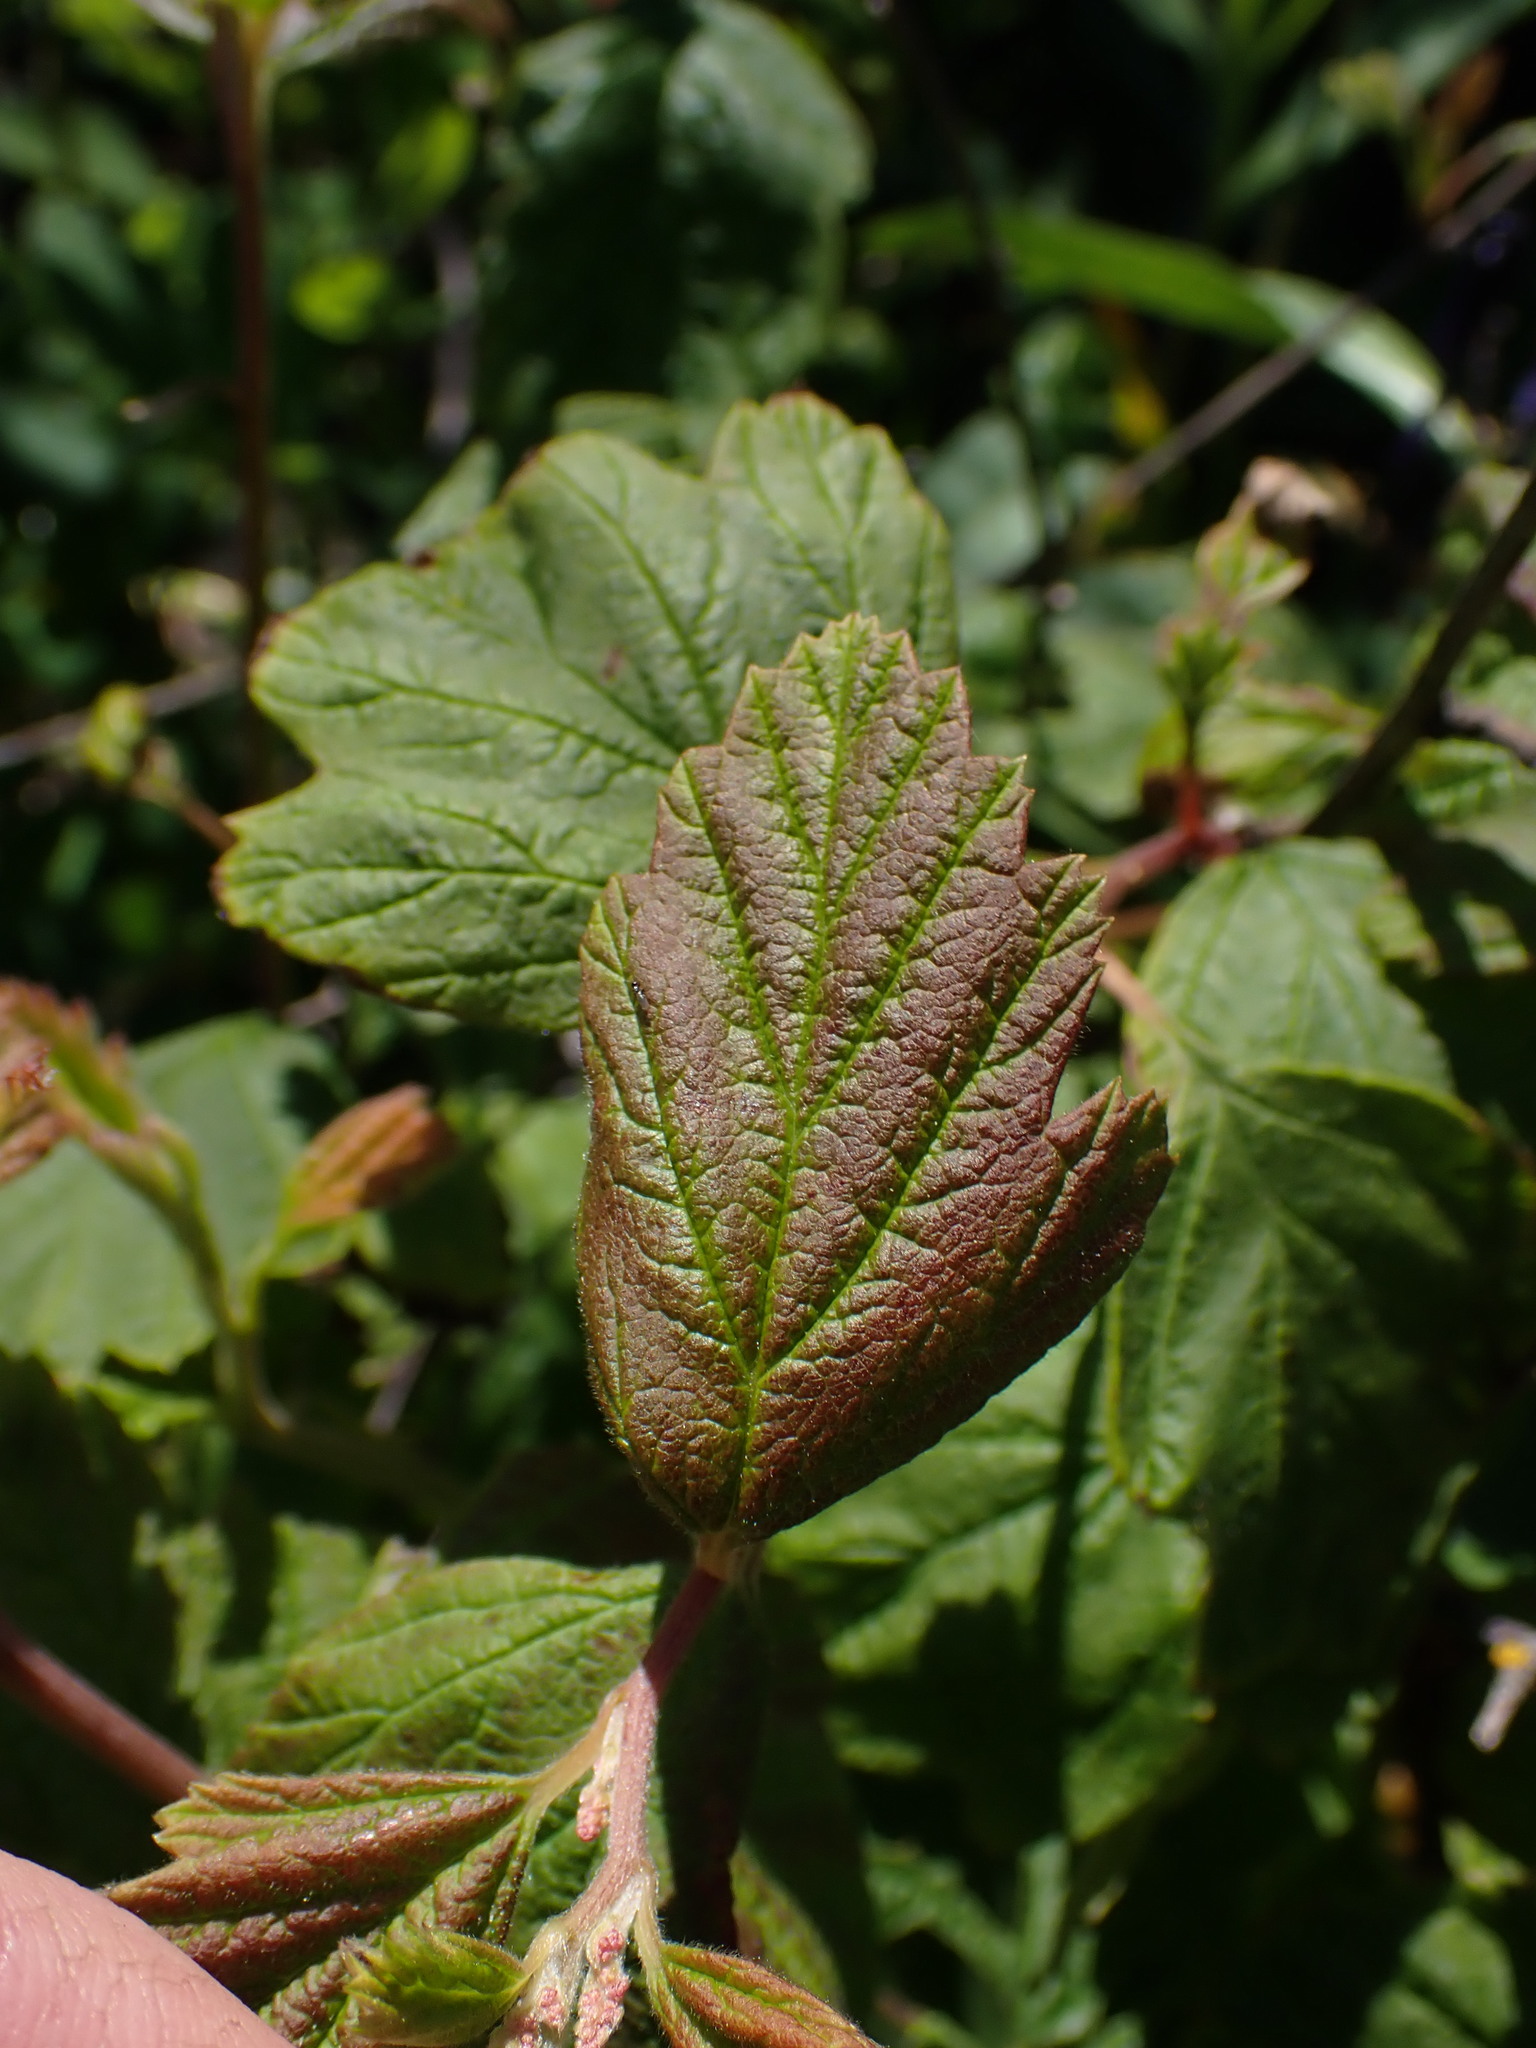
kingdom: Plantae
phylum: Tracheophyta
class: Magnoliopsida
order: Rosales
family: Rosaceae
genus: Holodiscus
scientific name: Holodiscus discolor
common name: Oceanspray
